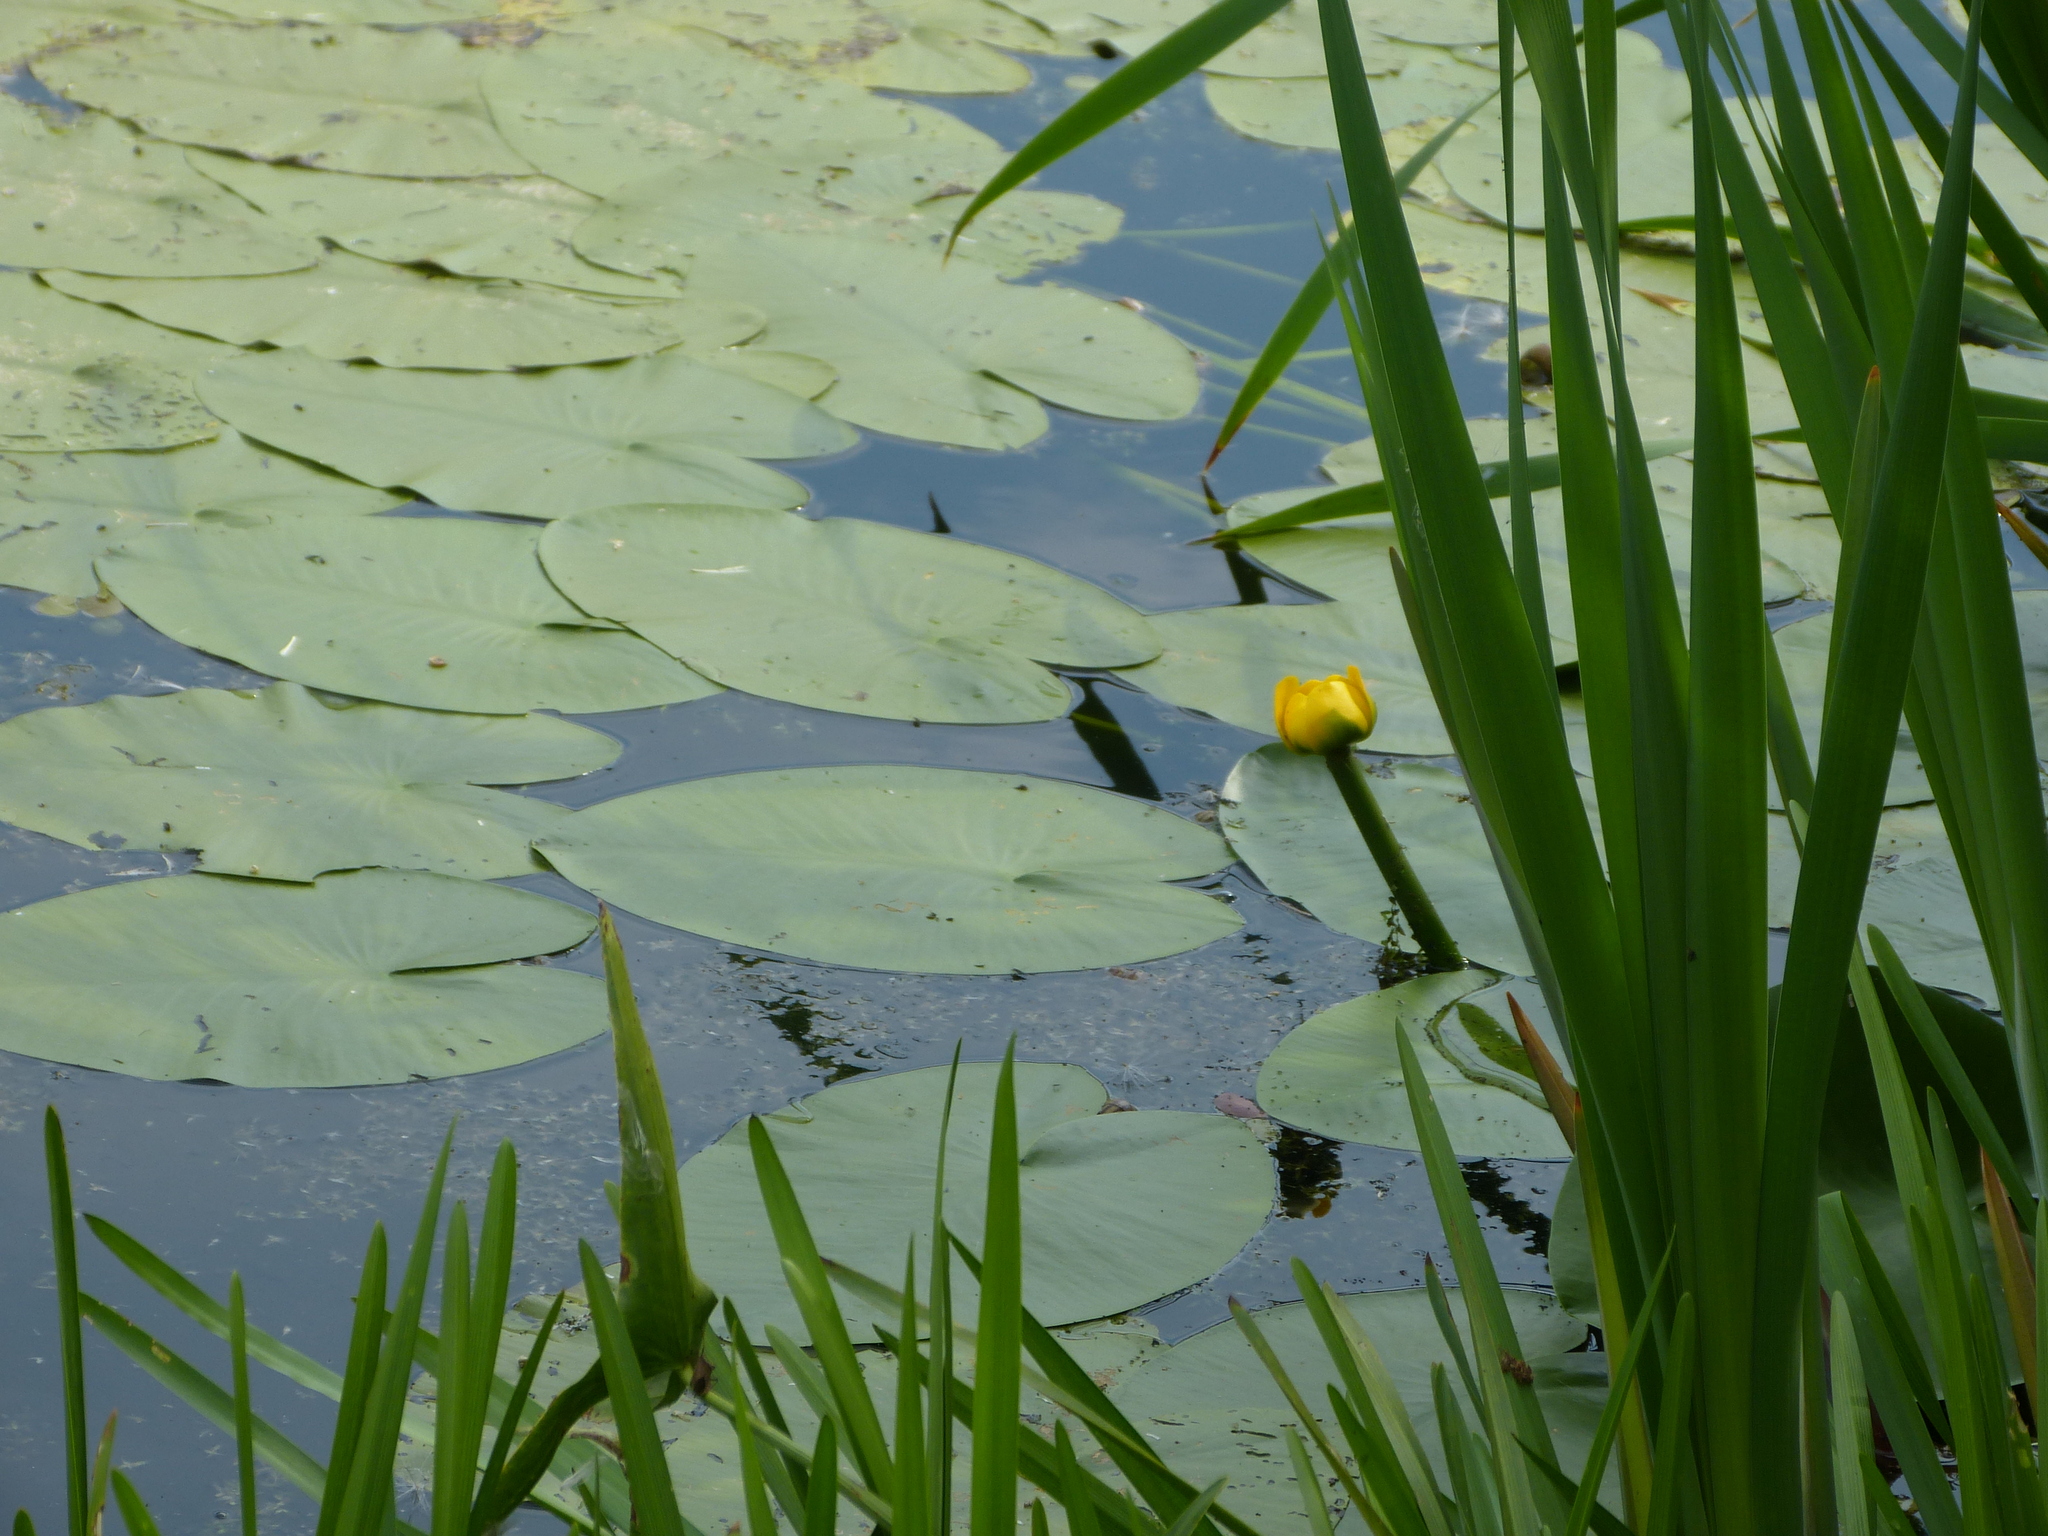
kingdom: Plantae
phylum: Tracheophyta
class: Magnoliopsida
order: Nymphaeales
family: Nymphaeaceae
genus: Nuphar
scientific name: Nuphar lutea
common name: Yellow water-lily
